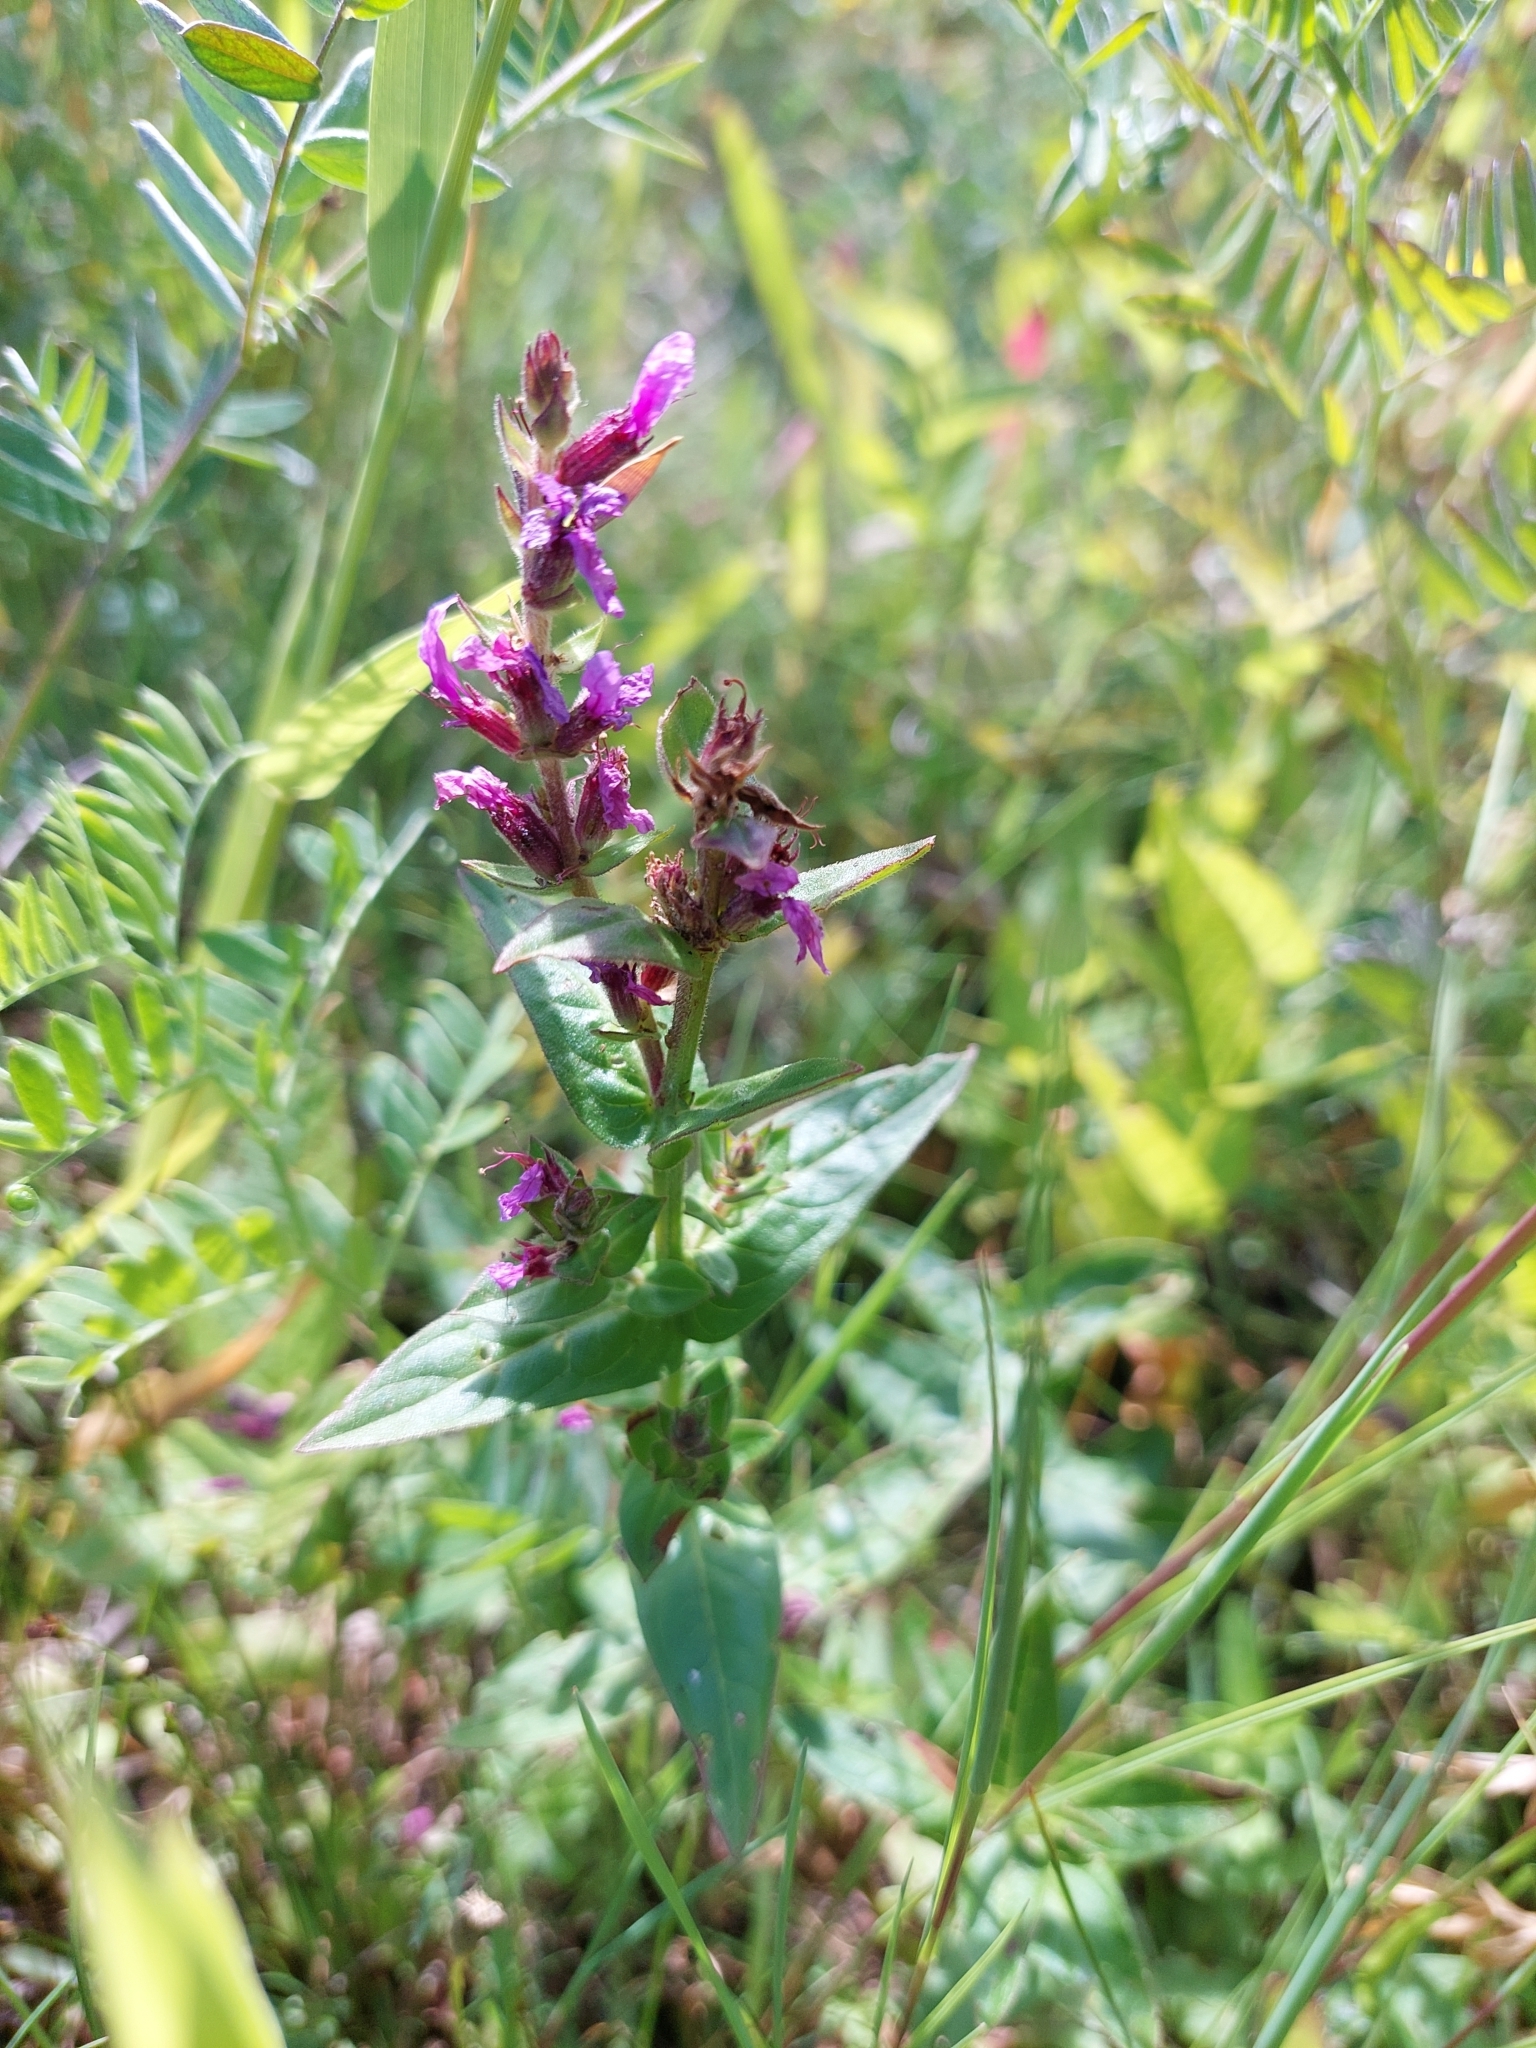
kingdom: Plantae
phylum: Tracheophyta
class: Magnoliopsida
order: Myrtales
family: Lythraceae
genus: Lythrum
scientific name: Lythrum salicaria
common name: Purple loosestrife
